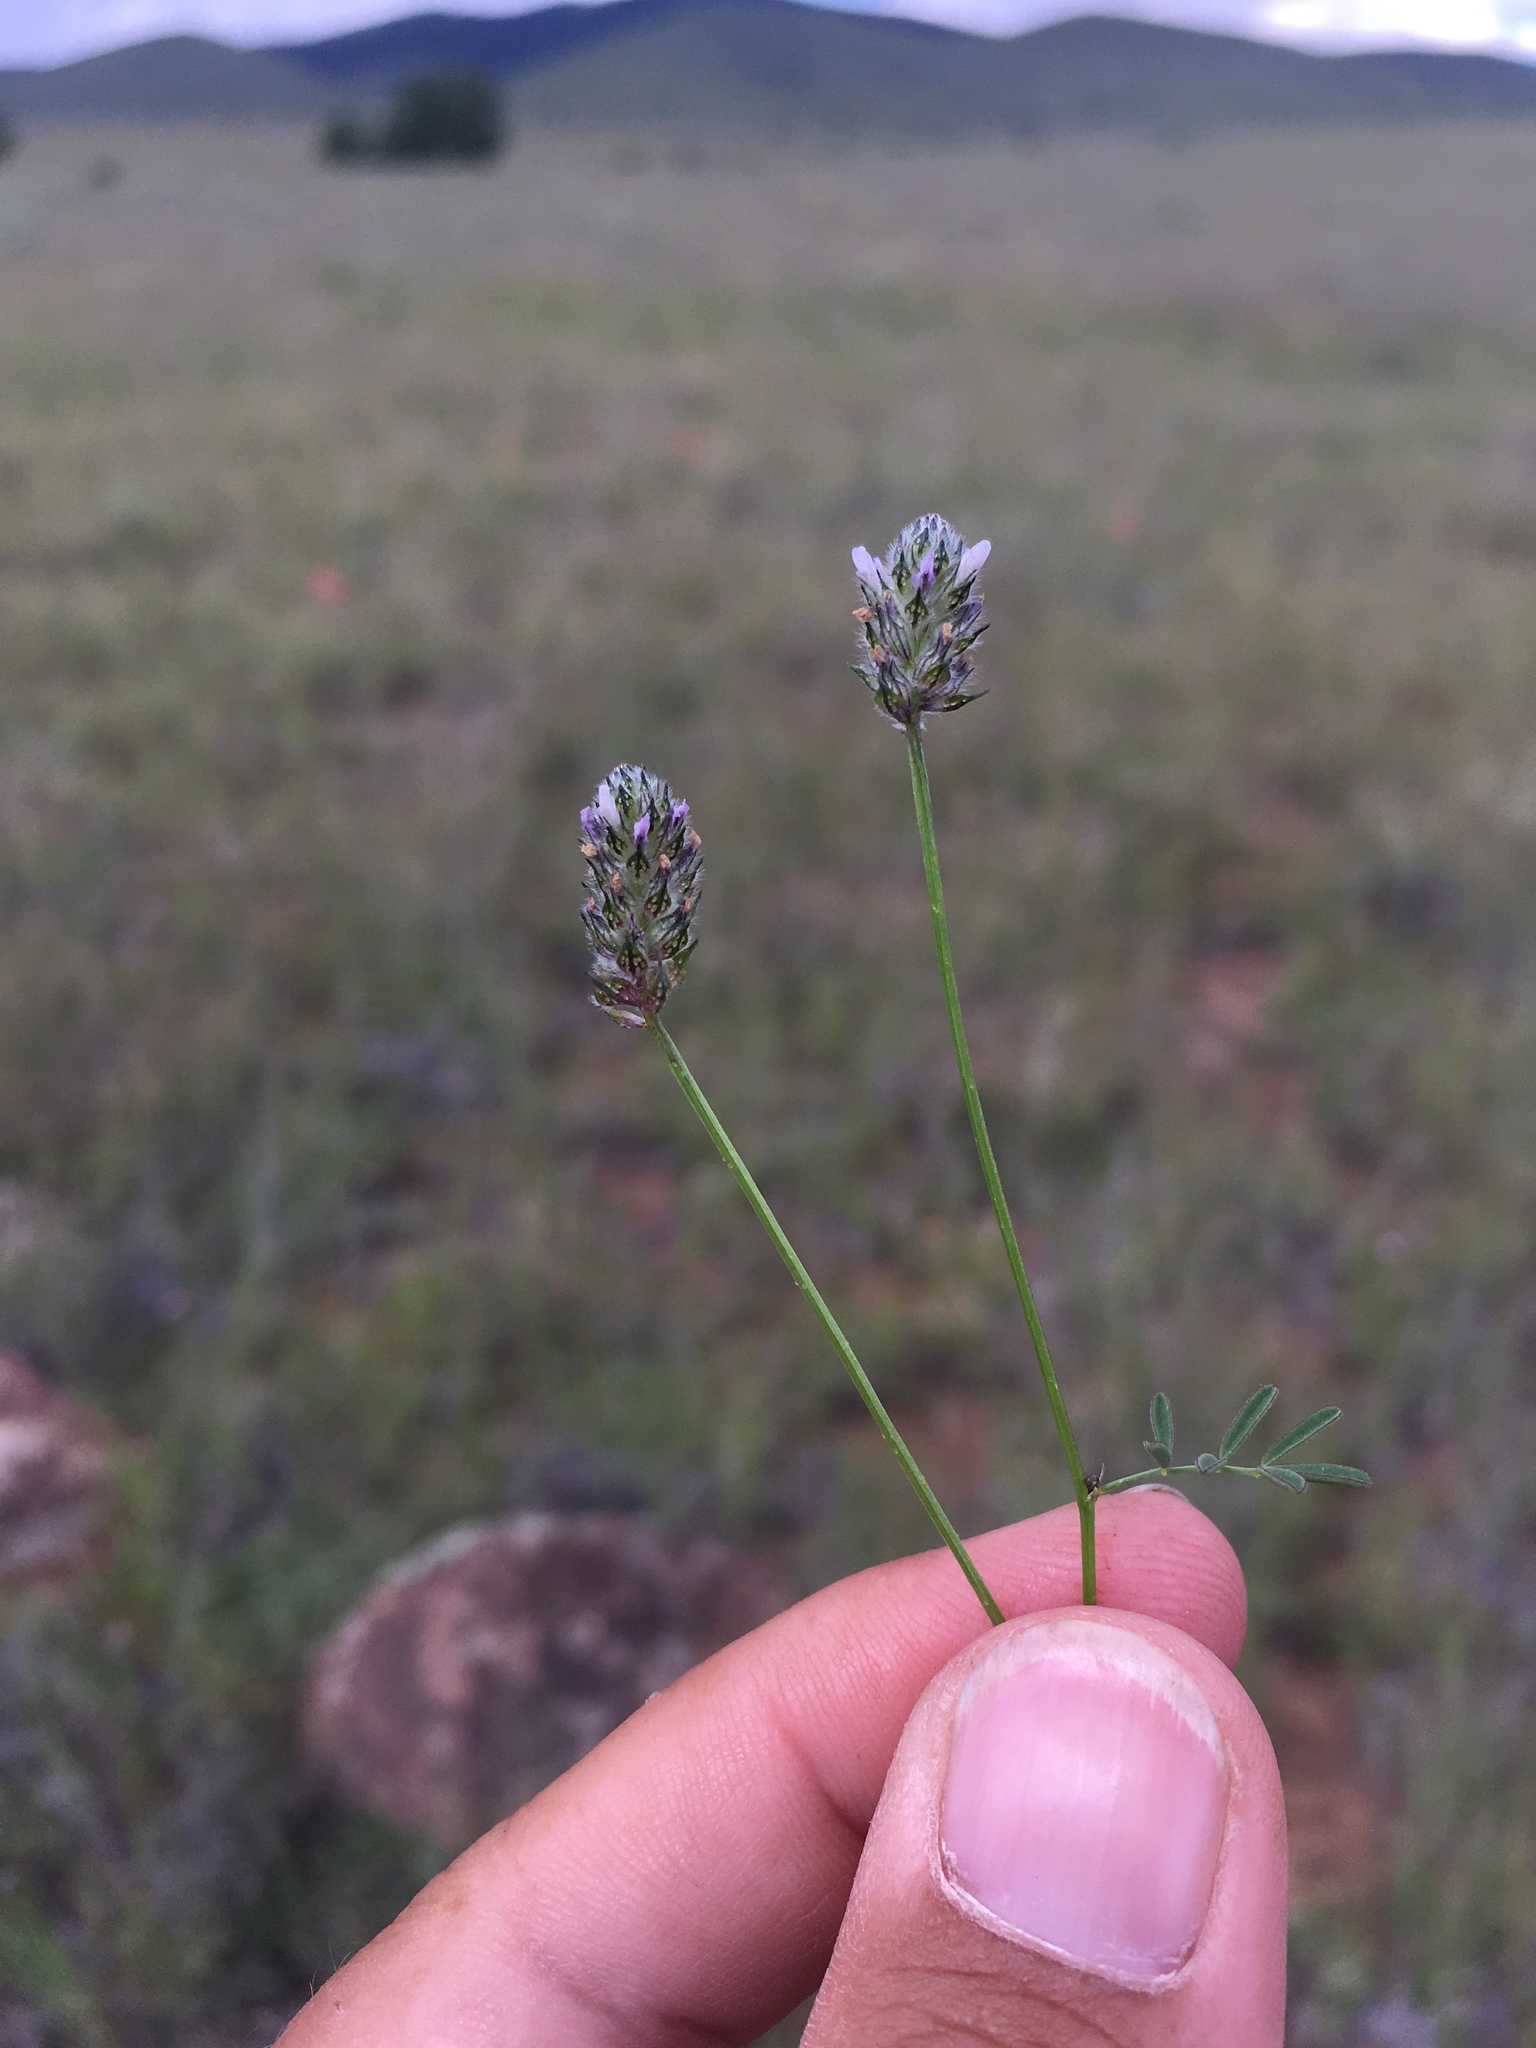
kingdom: Plantae
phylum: Tracheophyta
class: Magnoliopsida
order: Fabales
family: Fabaceae
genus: Dalea
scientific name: Dalea polygonoides
